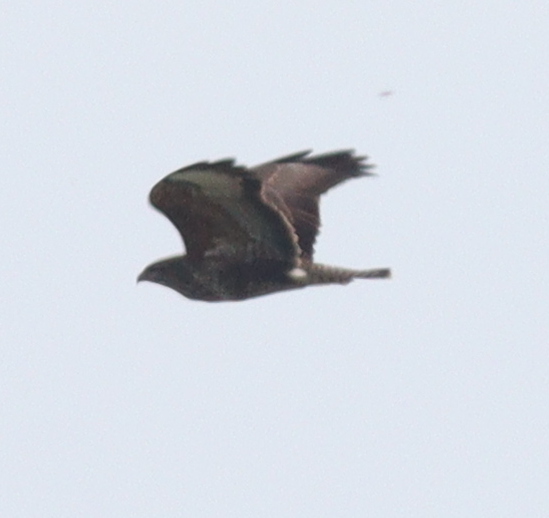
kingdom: Animalia
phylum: Chordata
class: Aves
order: Accipitriformes
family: Accipitridae
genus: Buteo
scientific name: Buteo buteo
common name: Common buzzard
